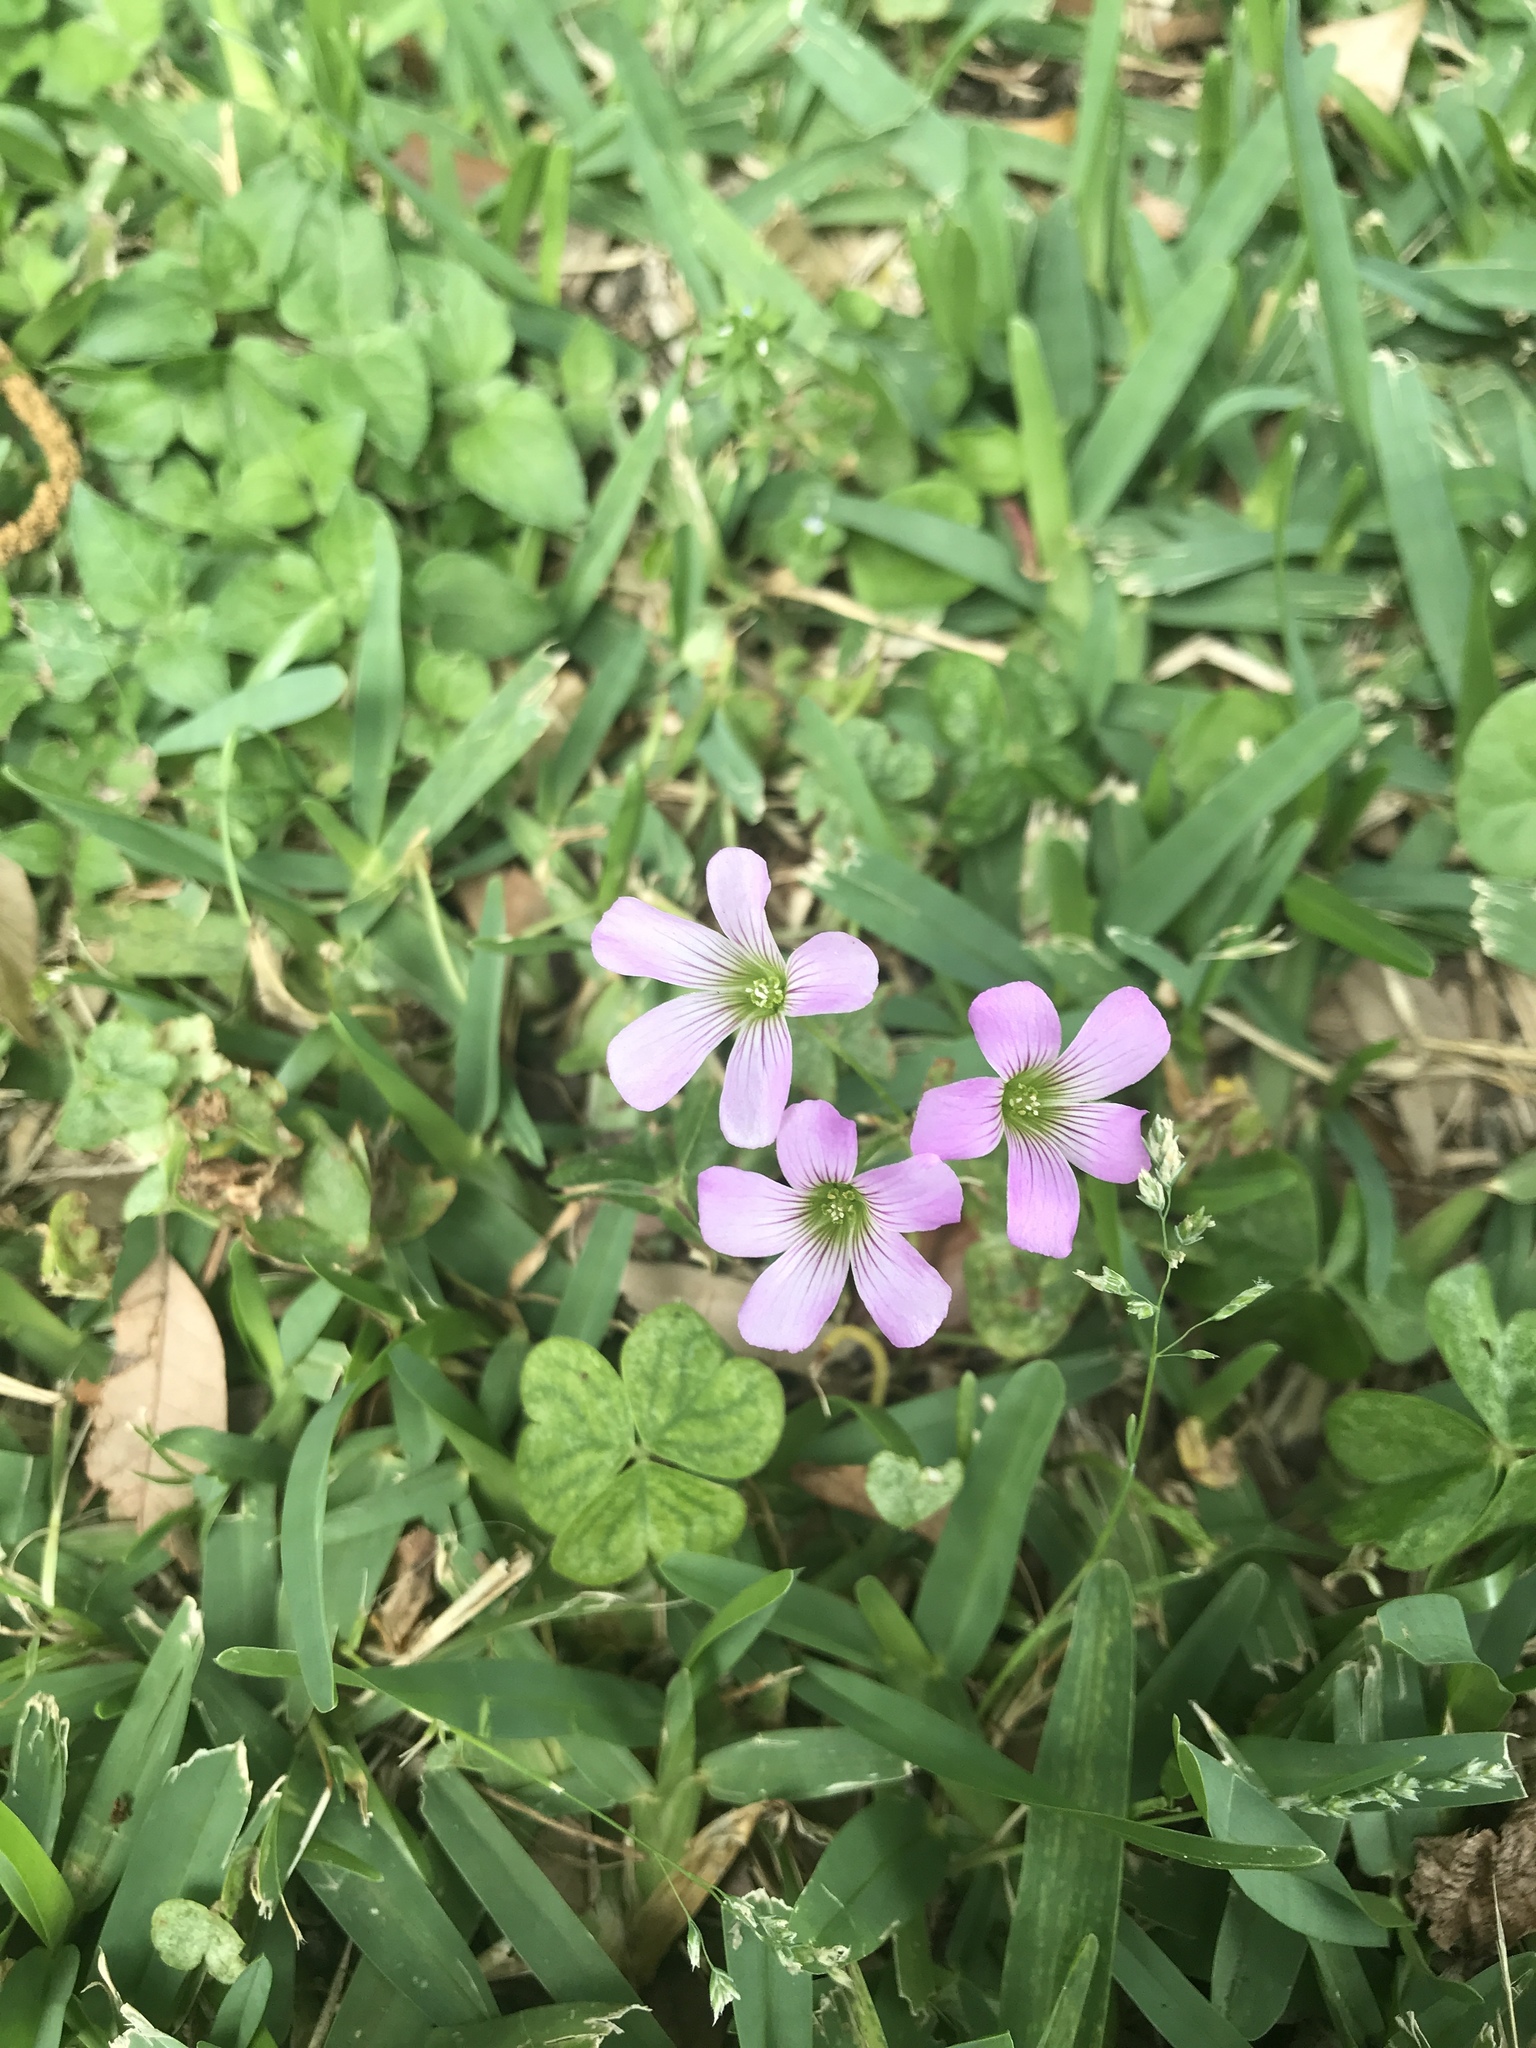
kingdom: Plantae
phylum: Tracheophyta
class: Magnoliopsida
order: Oxalidales
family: Oxalidaceae
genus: Oxalis
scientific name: Oxalis debilis
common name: Large-flowered pink-sorrel
